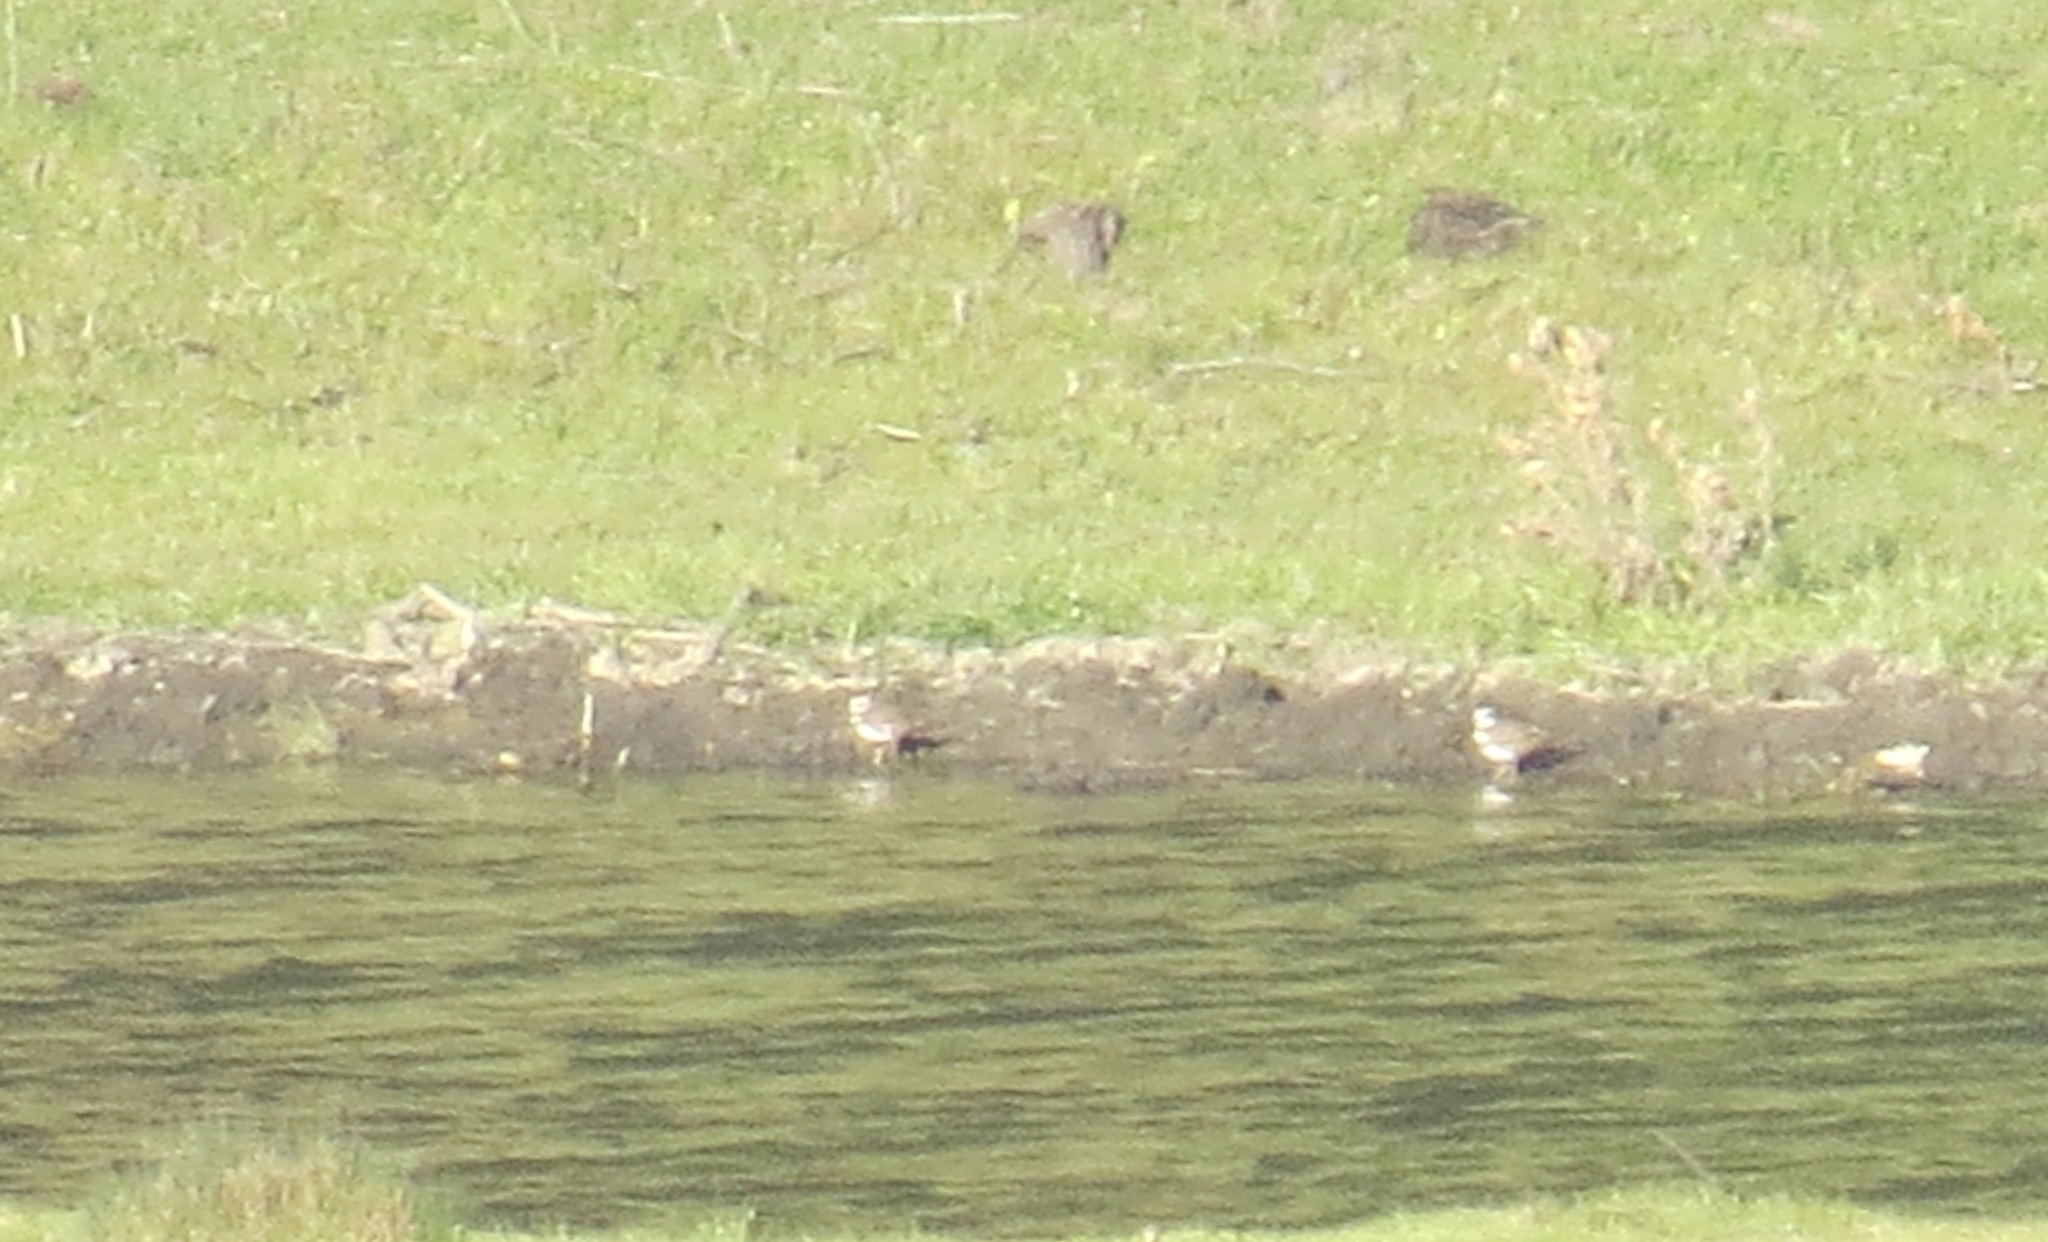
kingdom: Animalia
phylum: Chordata
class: Aves
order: Charadriiformes
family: Charadriidae
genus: Charadrius
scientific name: Charadrius vociferus
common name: Killdeer
